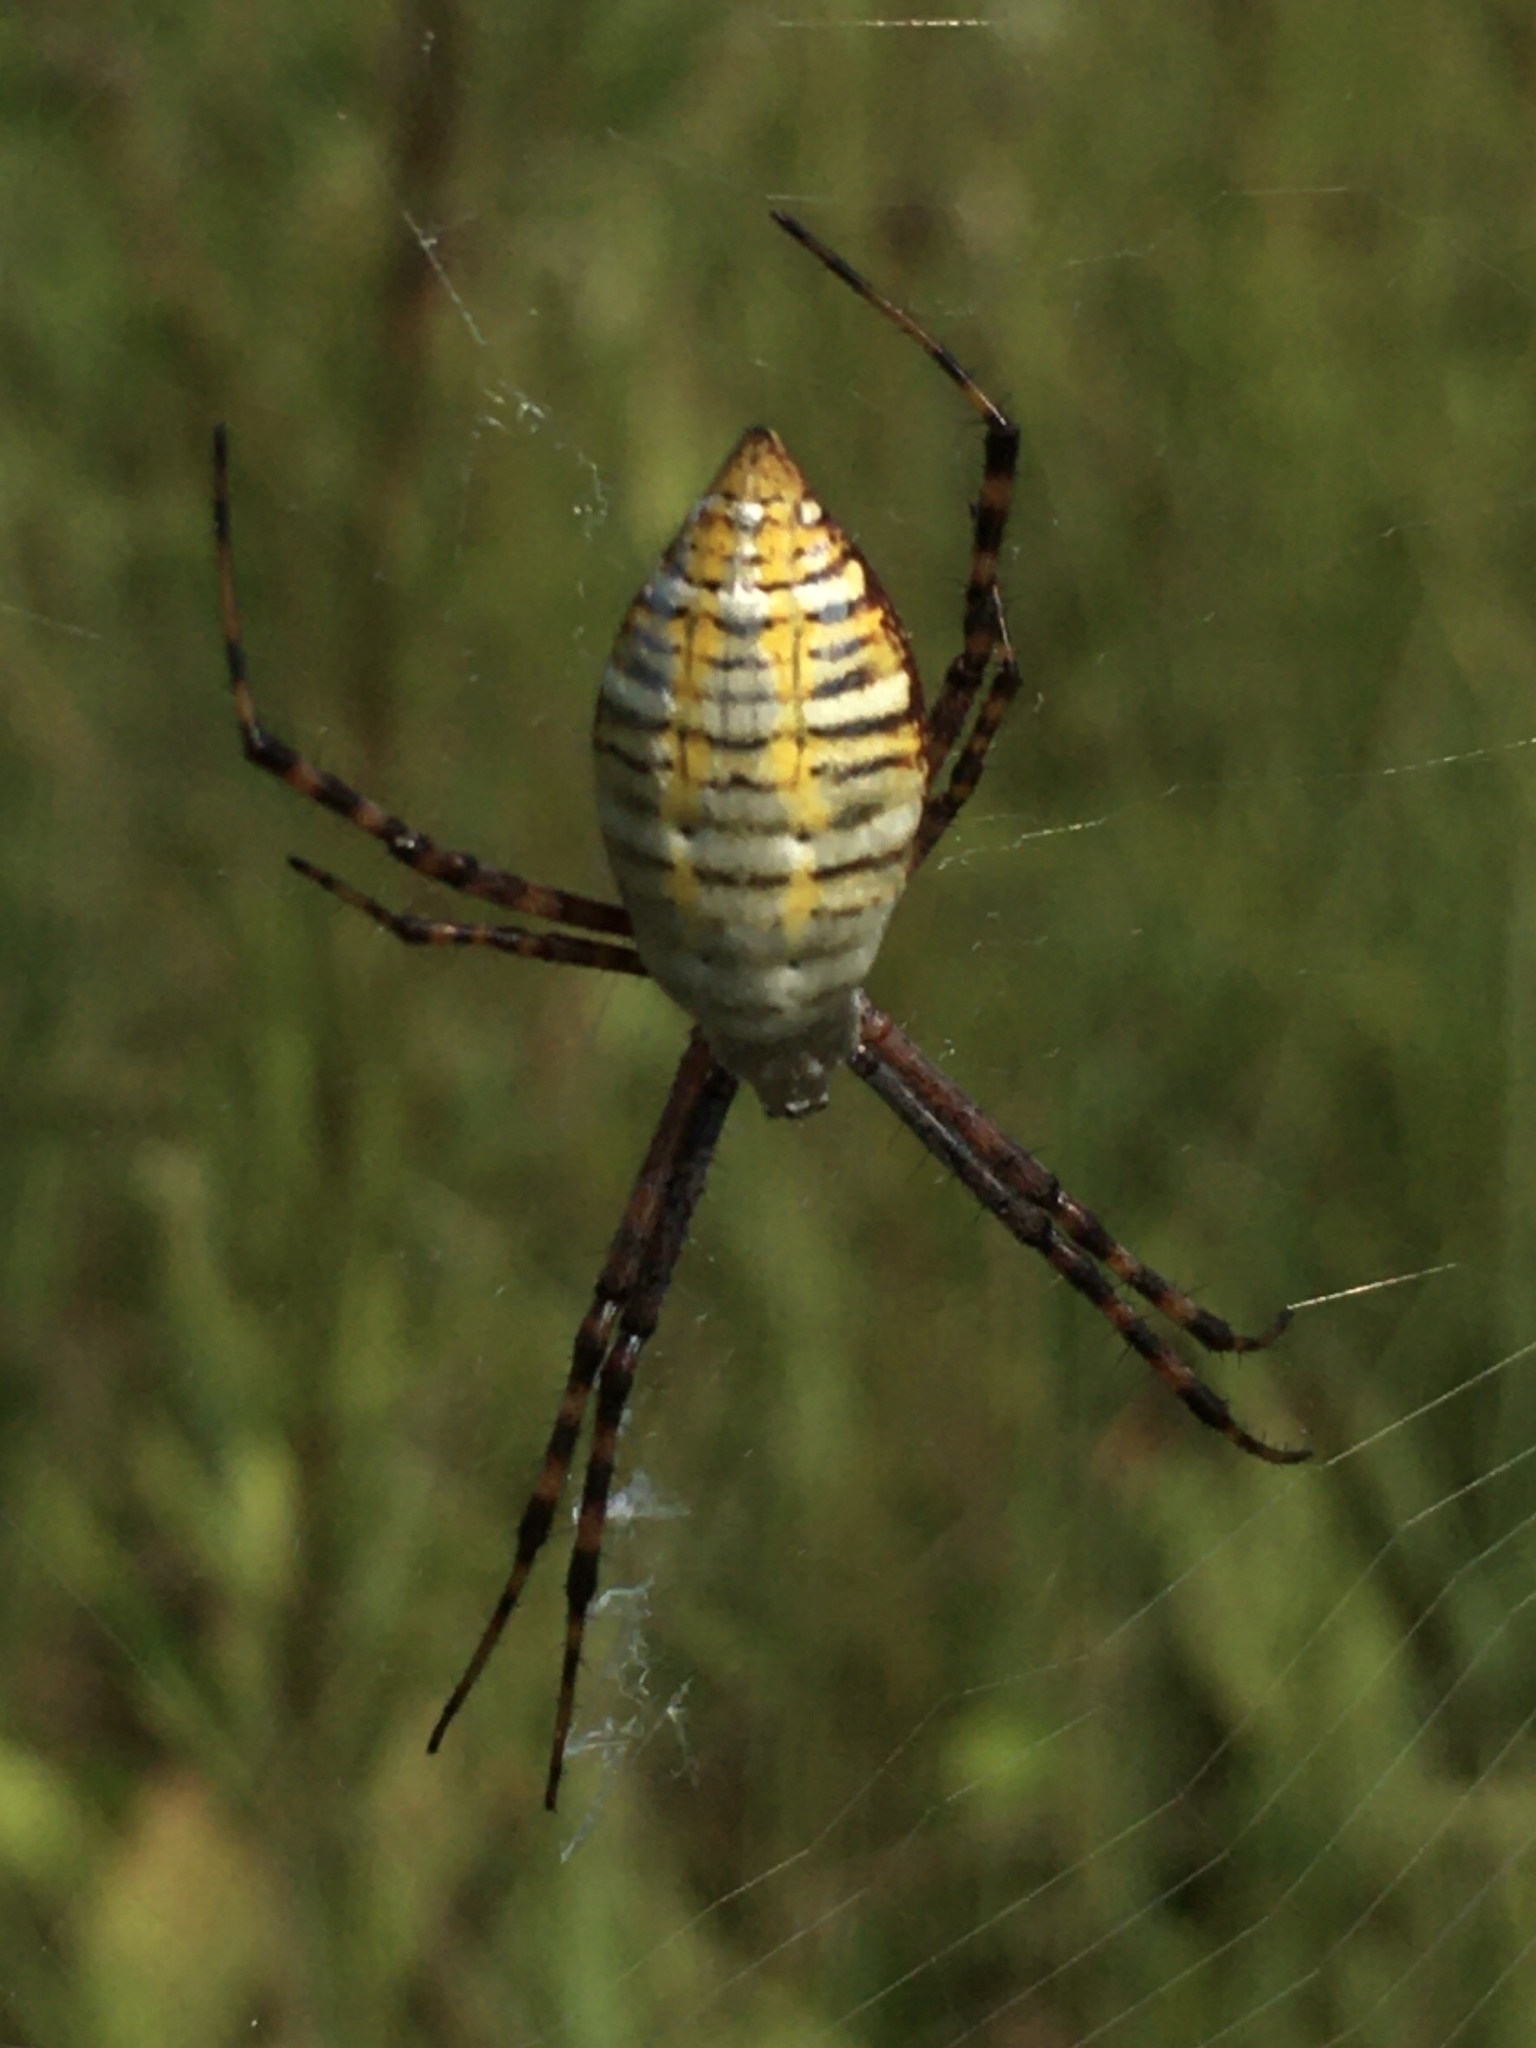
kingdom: Animalia
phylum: Arthropoda
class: Arachnida
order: Araneae
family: Araneidae
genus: Argiope
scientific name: Argiope trifasciata
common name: Banded garden spider
